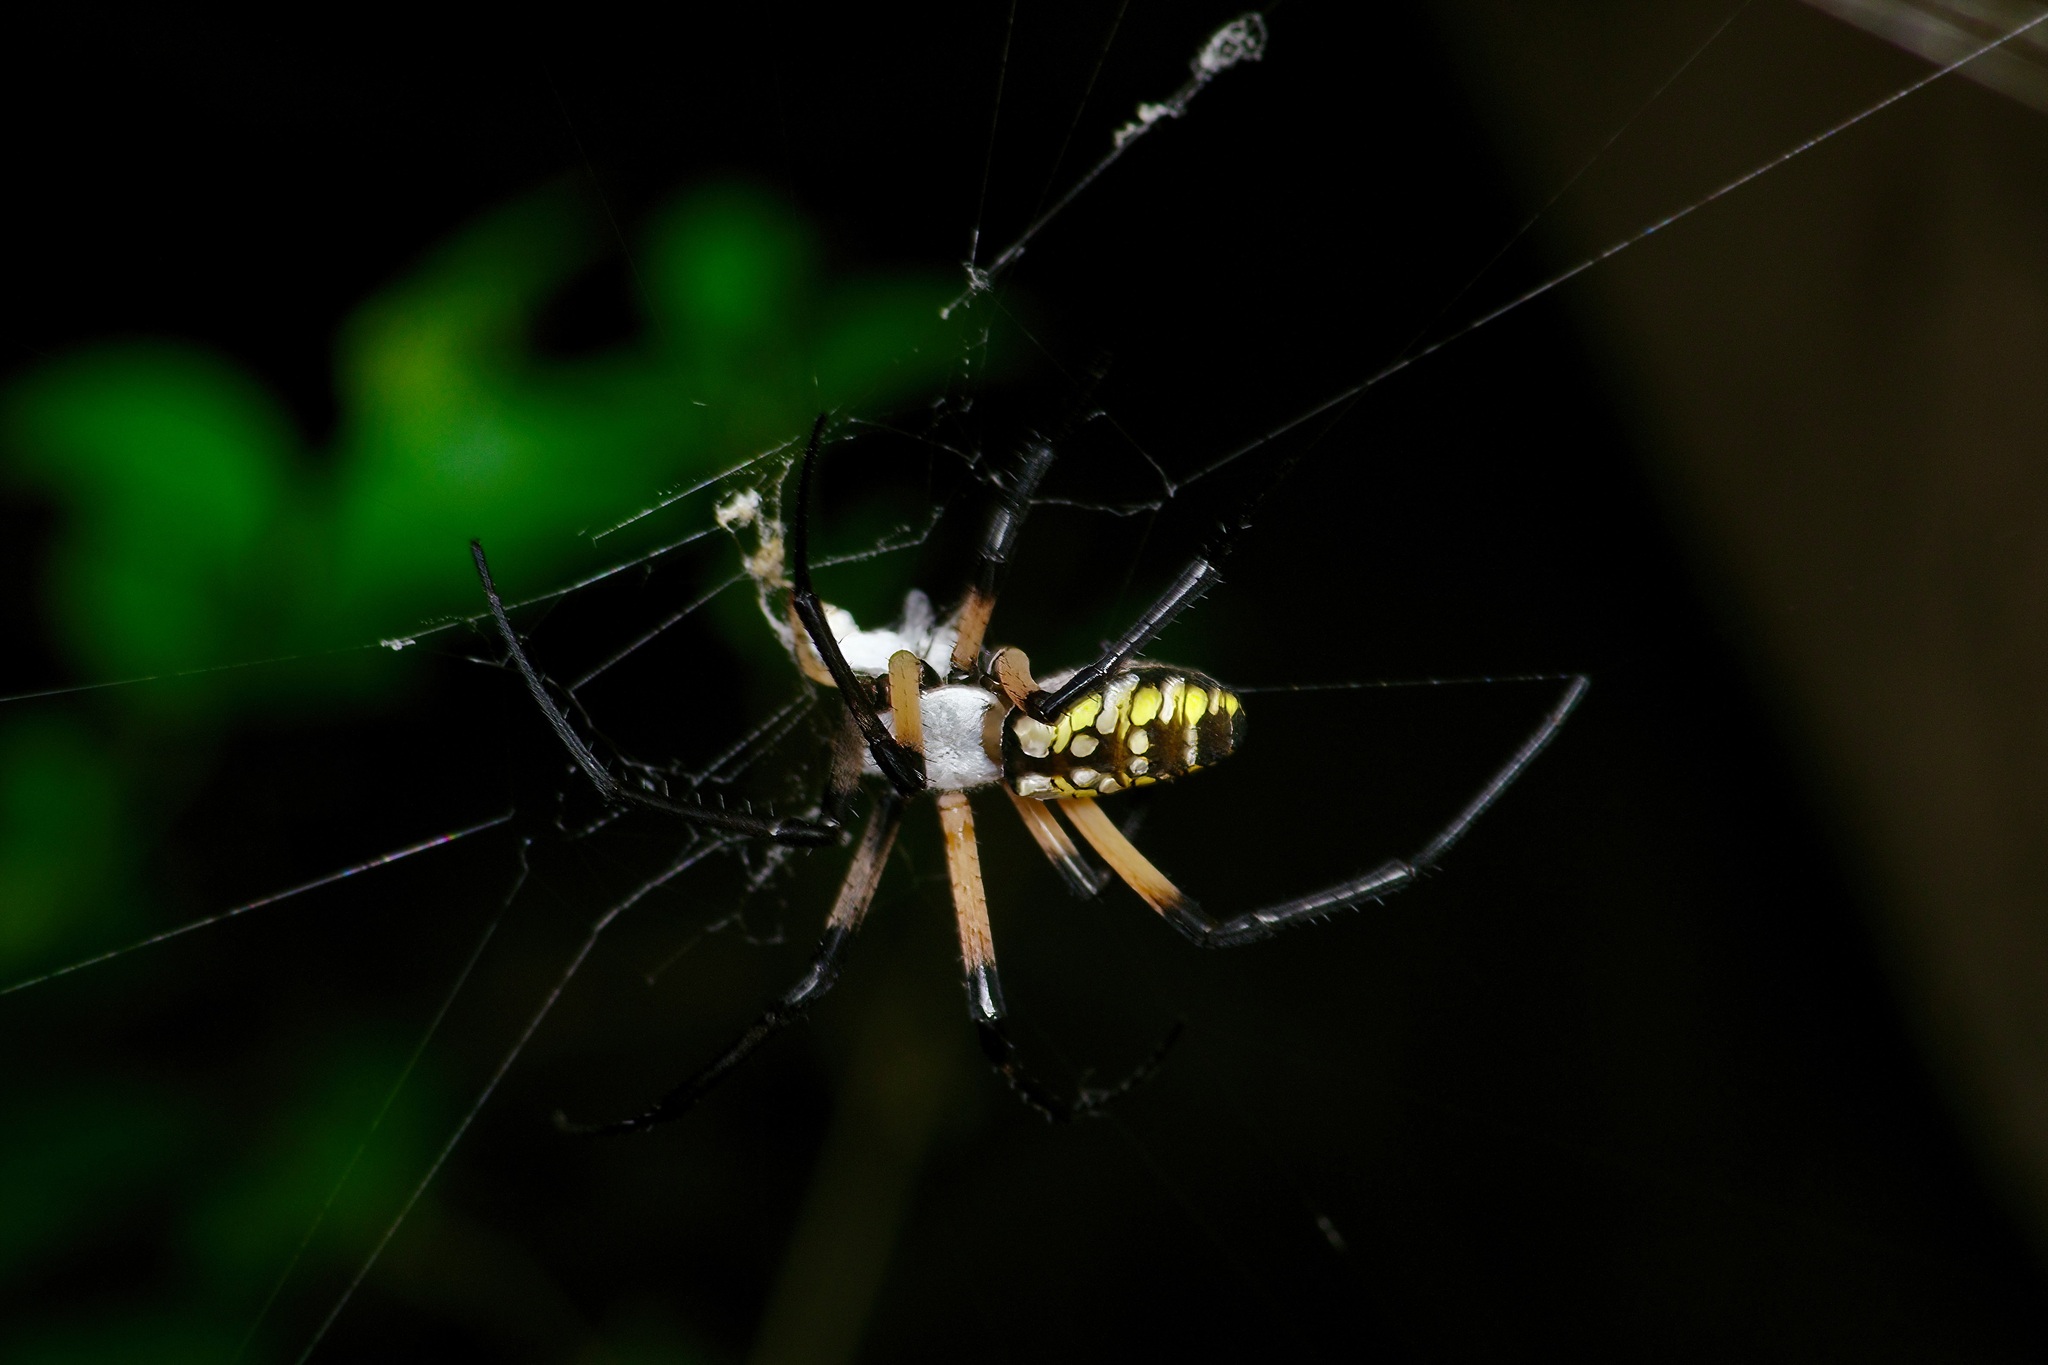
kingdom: Animalia
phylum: Arthropoda
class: Arachnida
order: Araneae
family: Araneidae
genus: Argiope
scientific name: Argiope aurantia
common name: Orb weavers
